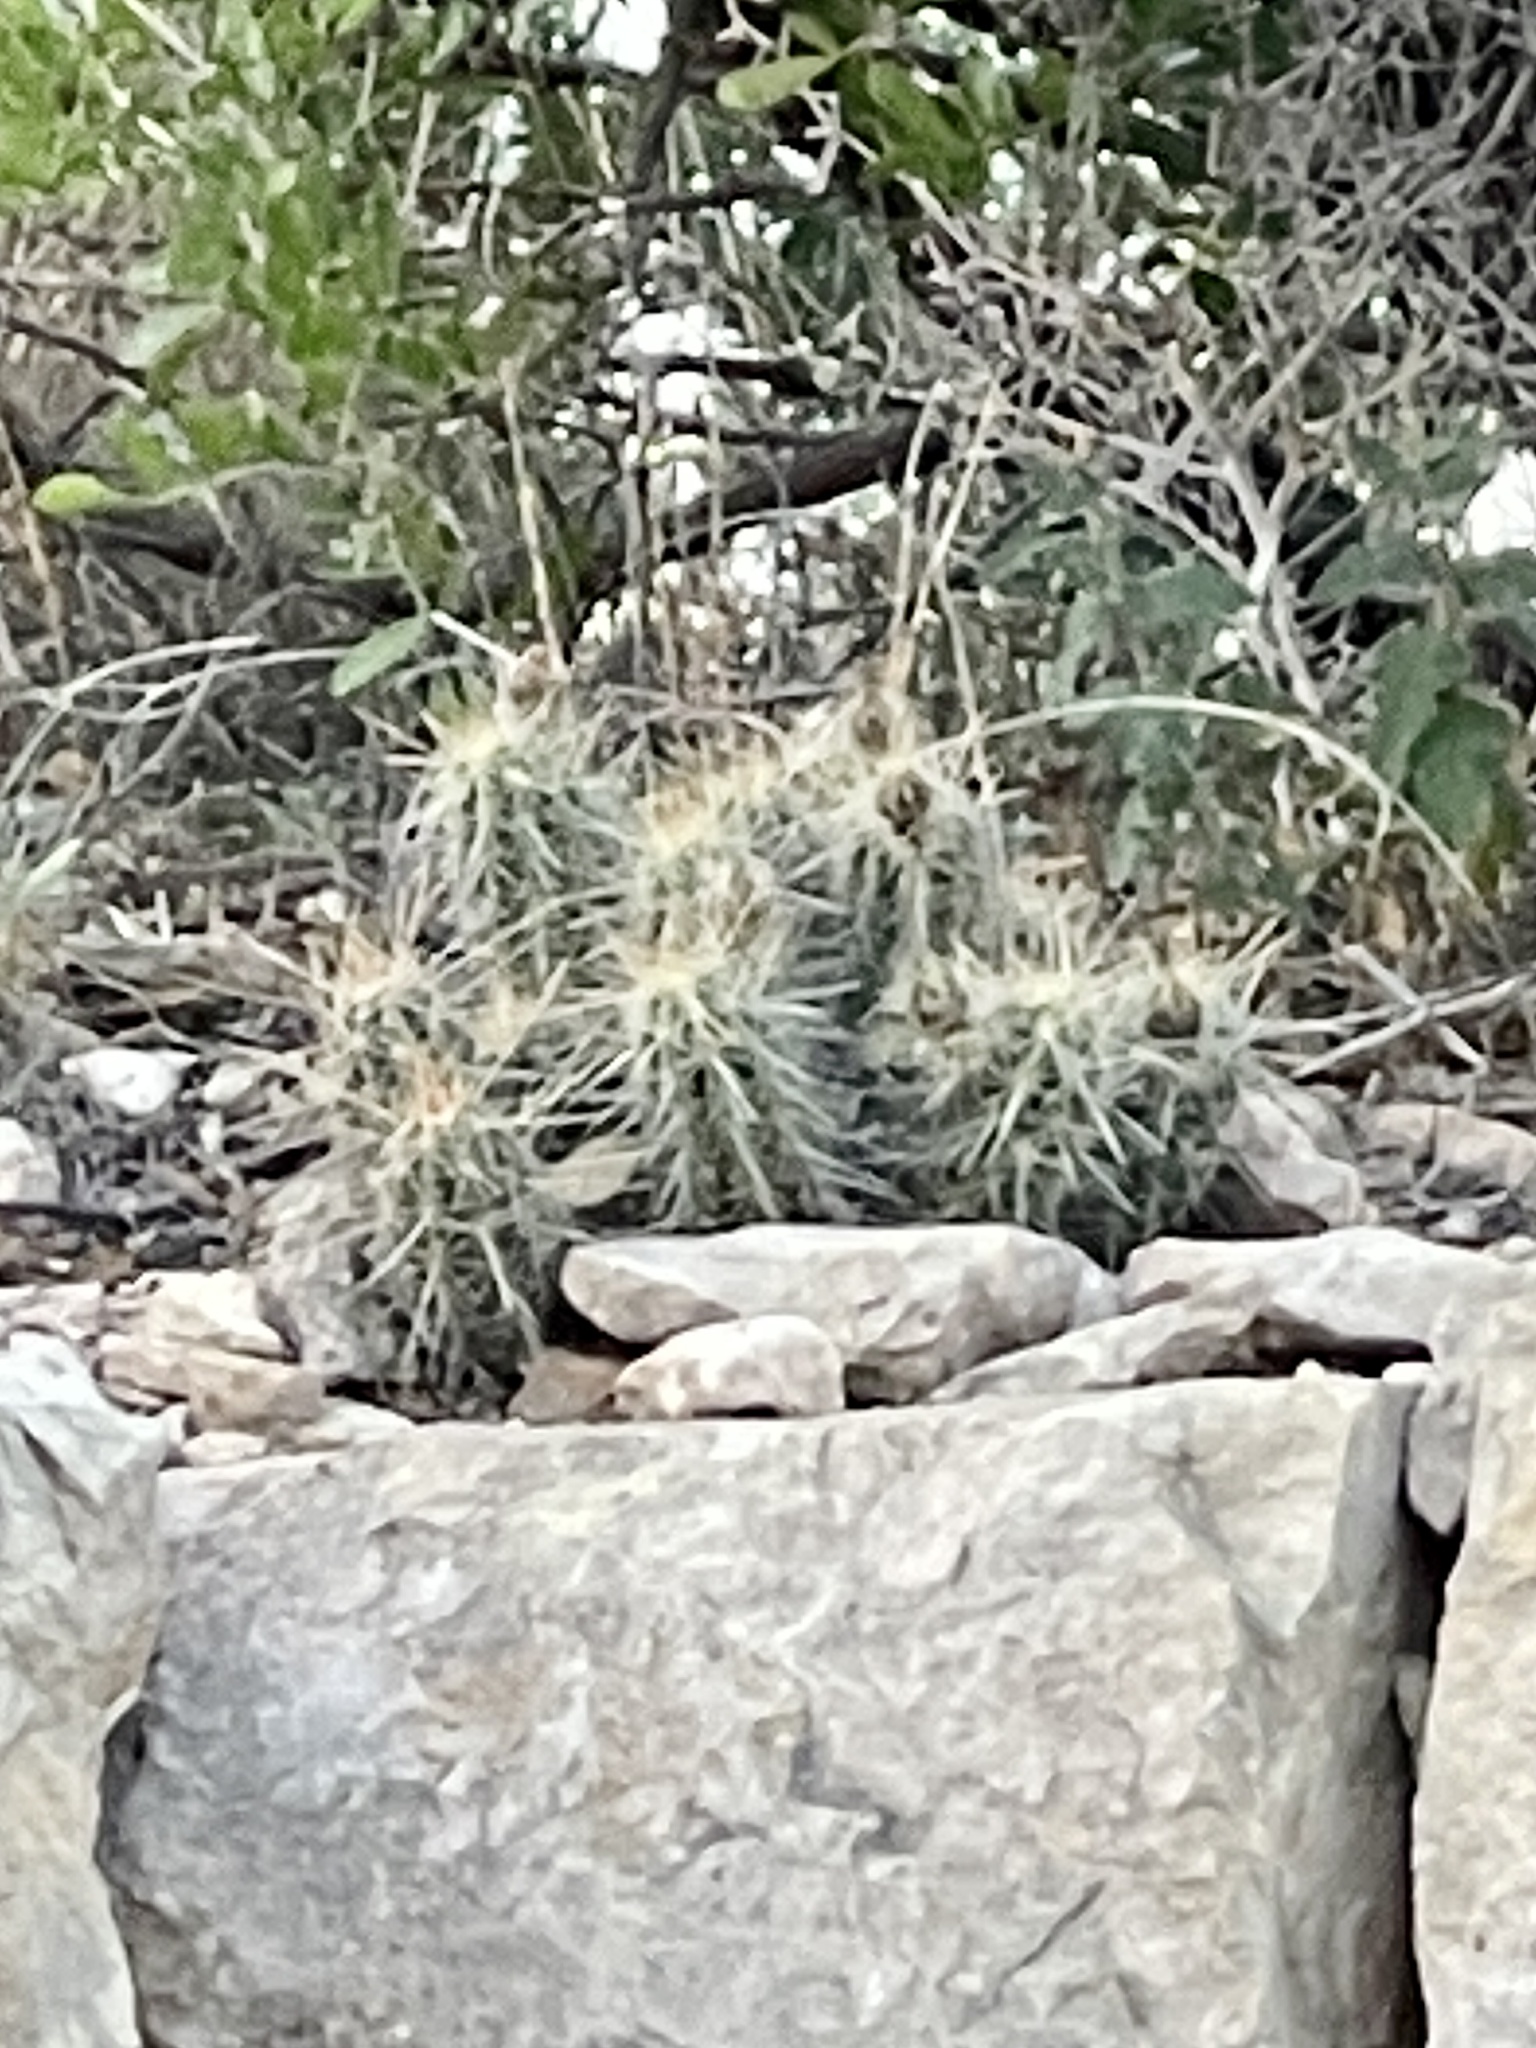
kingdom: Plantae
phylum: Tracheophyta
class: Magnoliopsida
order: Caryophyllales
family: Cactaceae
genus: Echinocereus
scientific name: Echinocereus enneacanthus
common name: Pitaya
